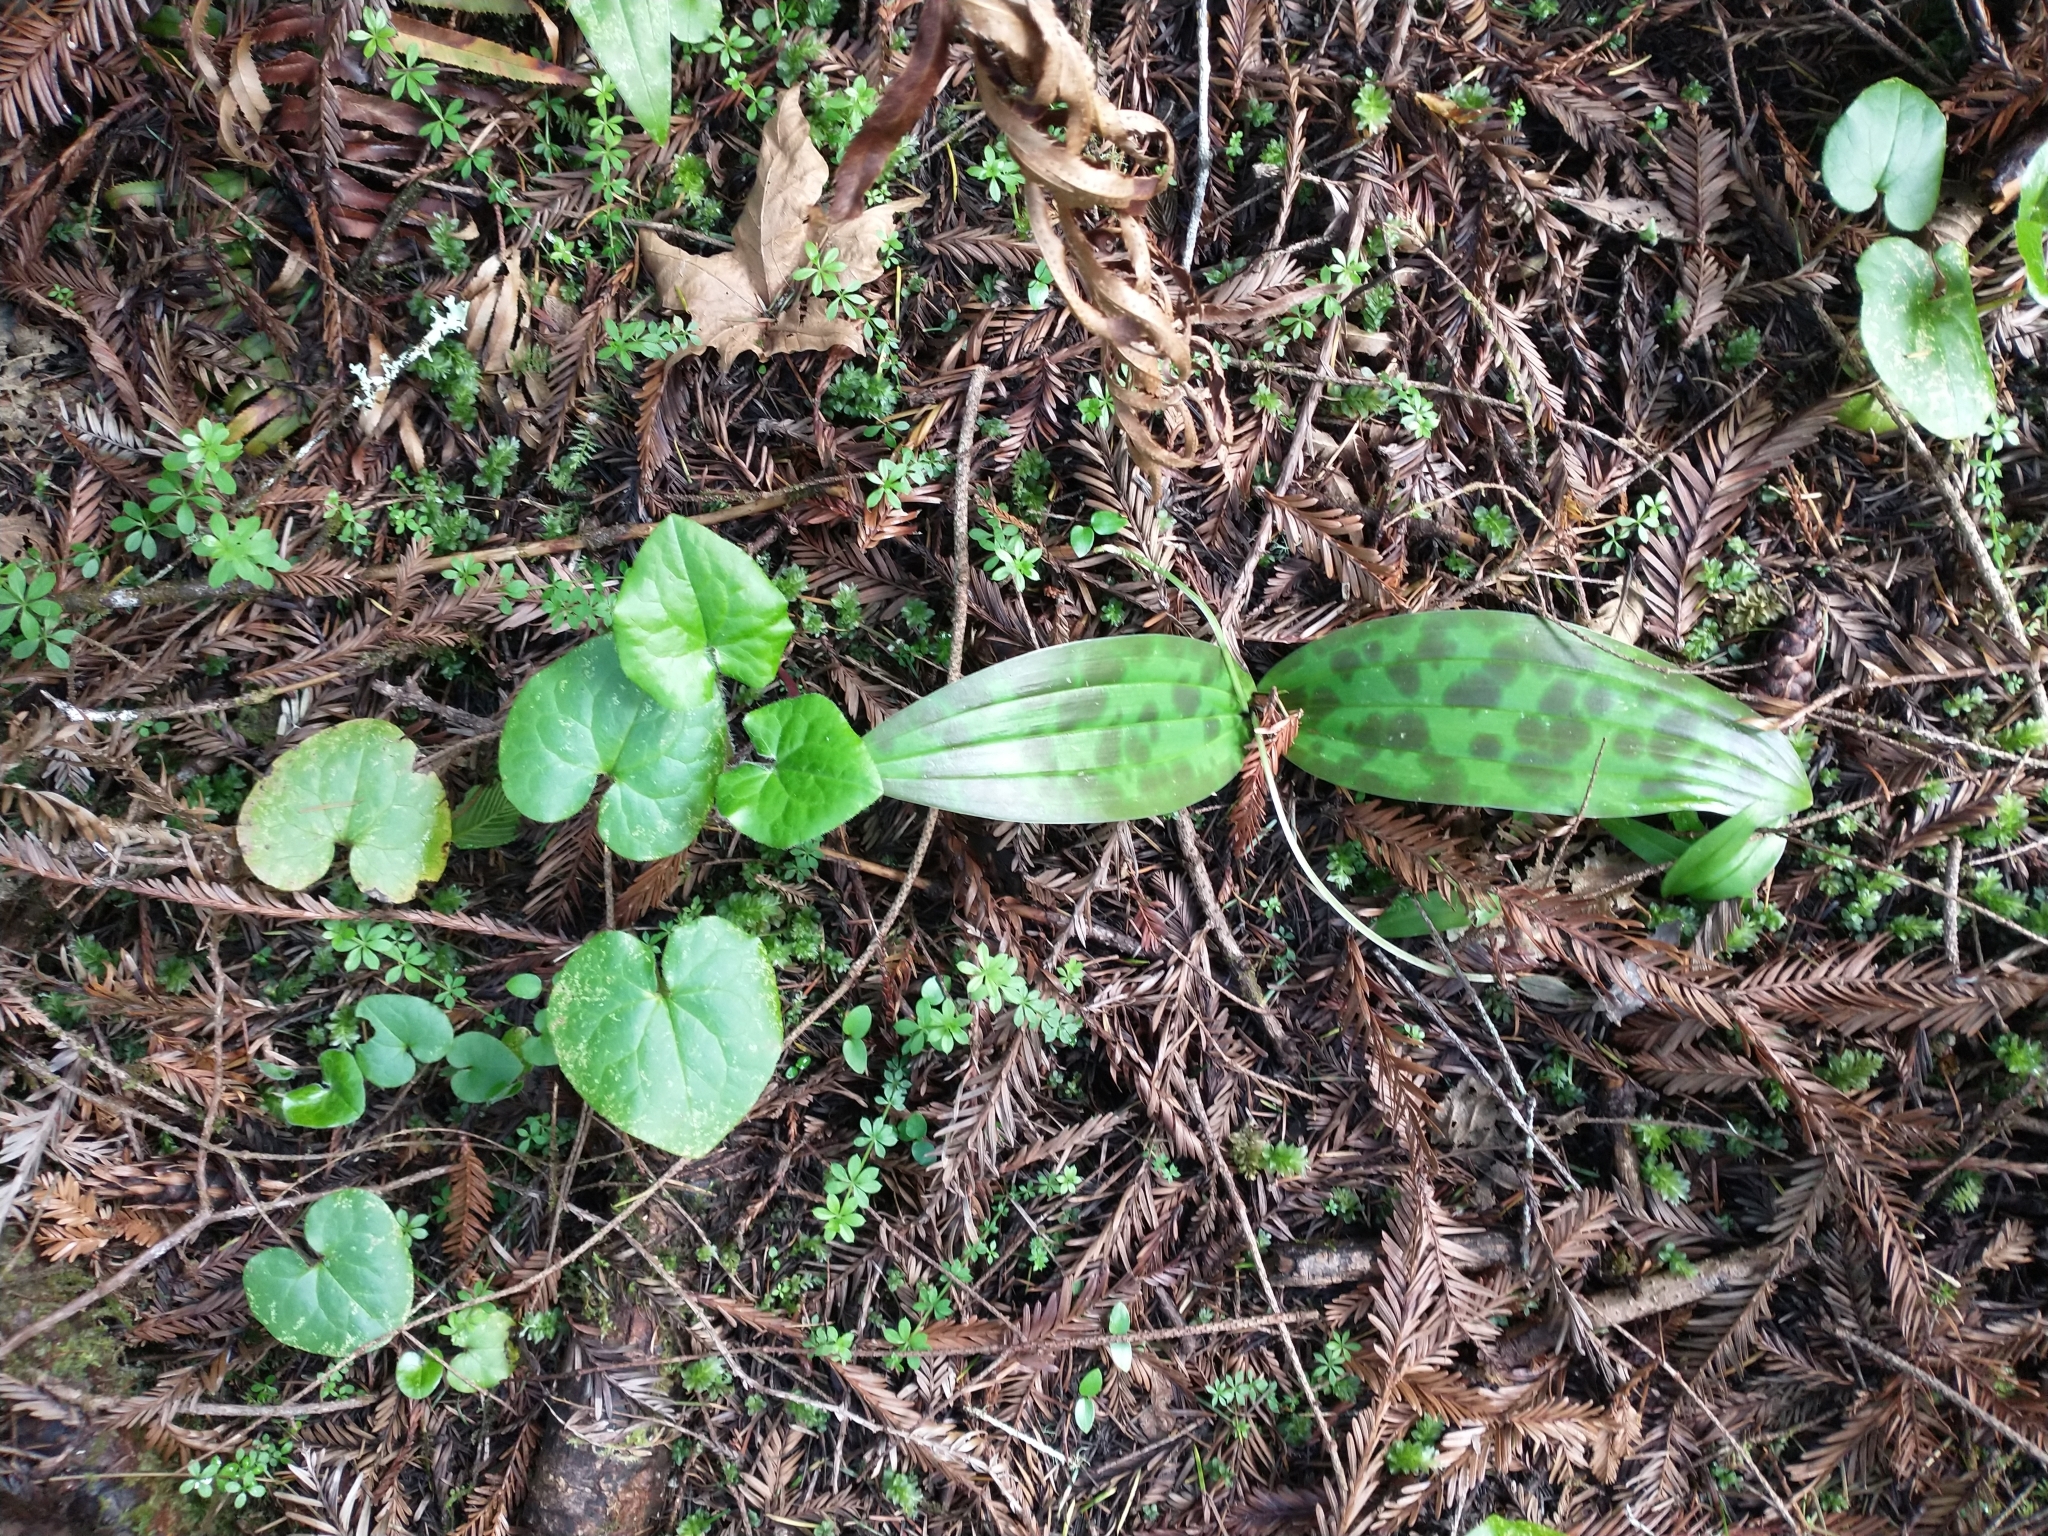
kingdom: Plantae
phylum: Tracheophyta
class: Liliopsida
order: Liliales
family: Liliaceae
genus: Scoliopus
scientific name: Scoliopus bigelovii
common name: Foetid adder's-tongue
